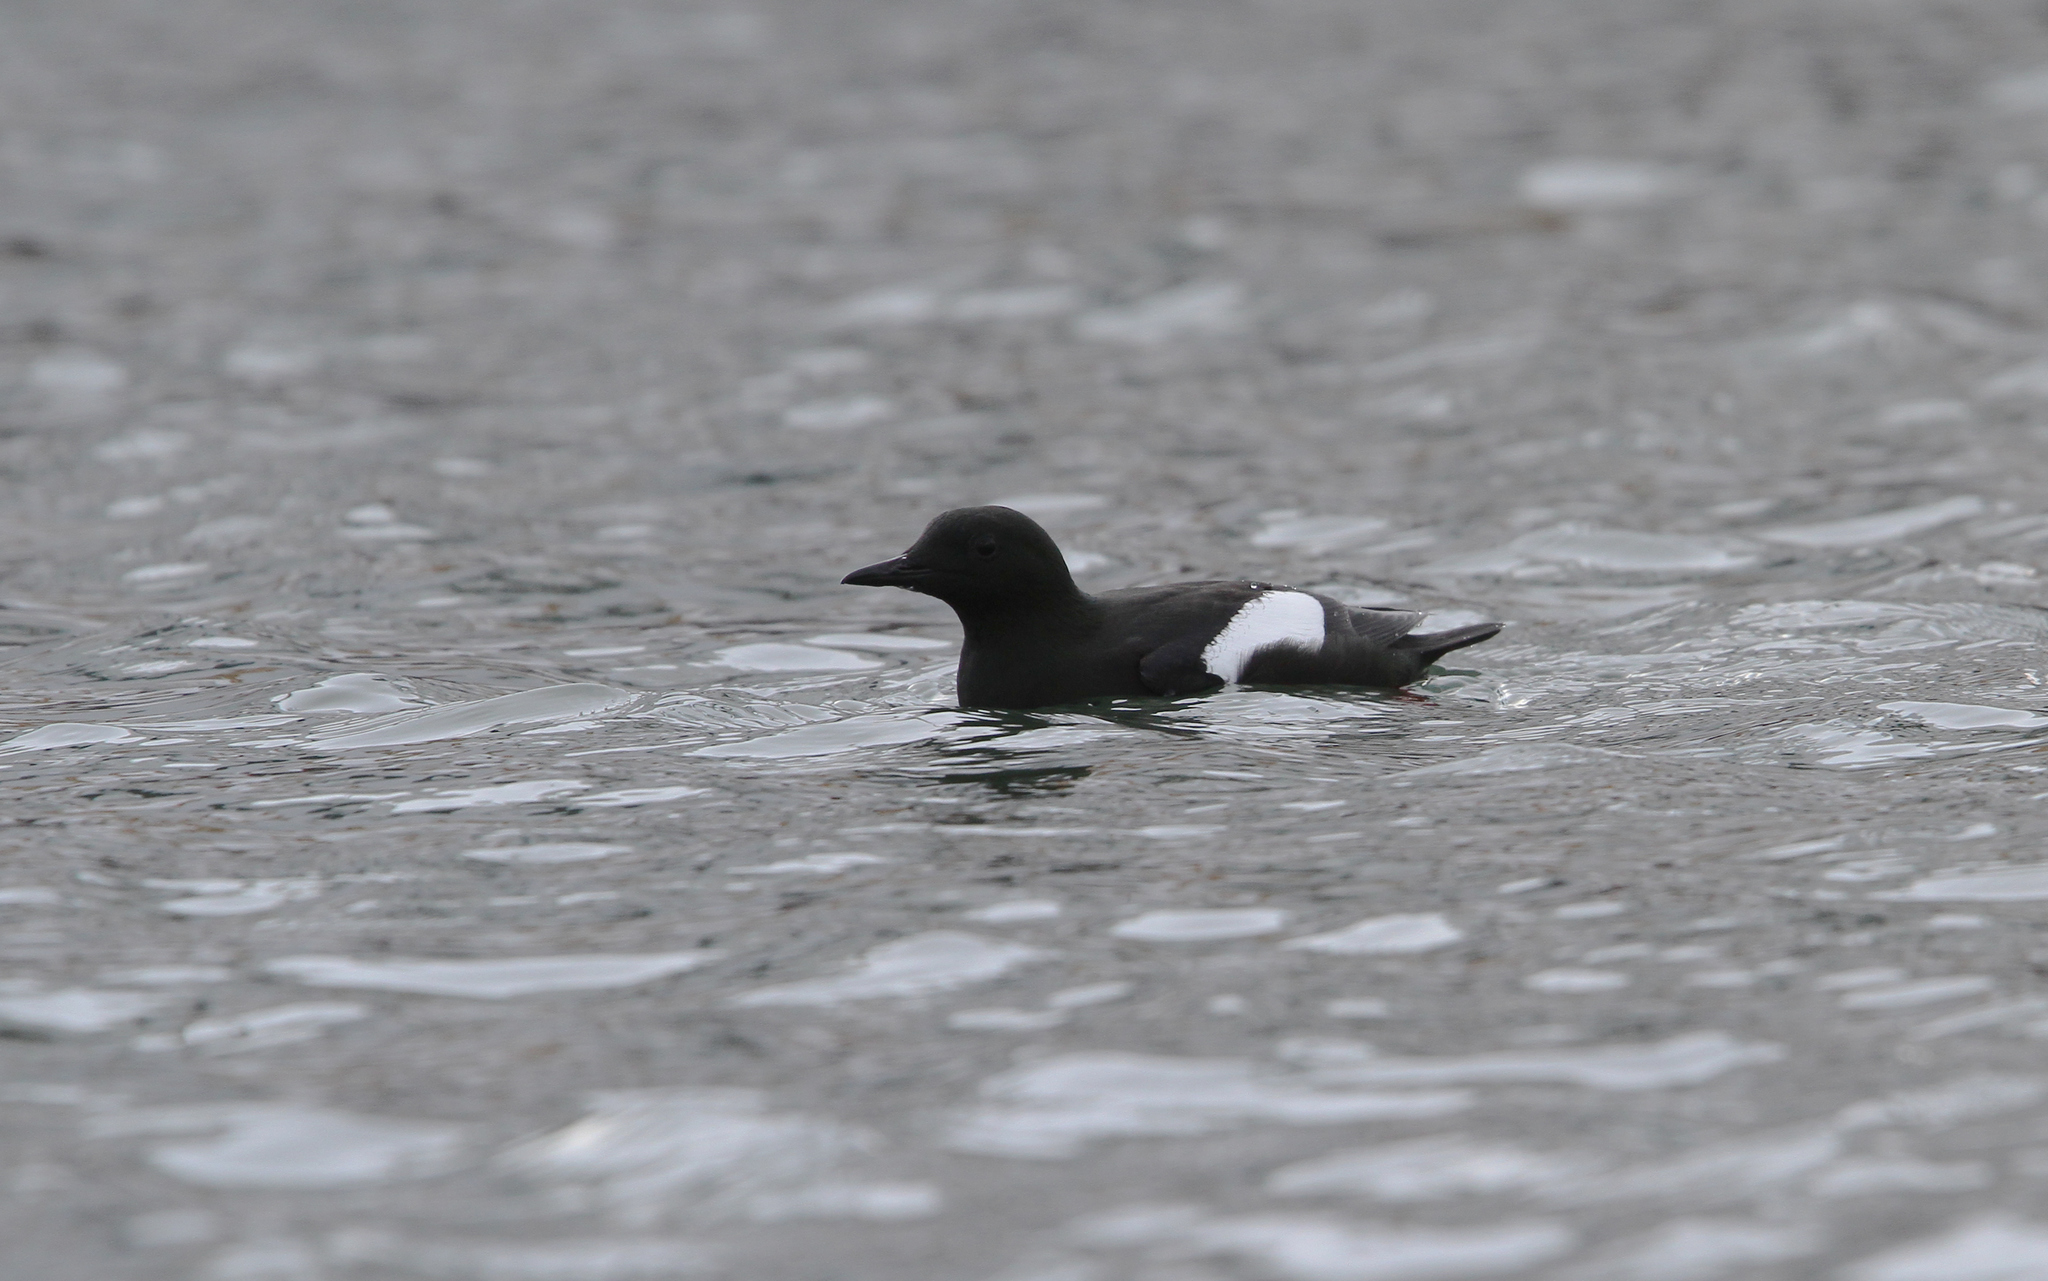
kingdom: Animalia
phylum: Chordata
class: Aves
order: Charadriiformes
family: Alcidae
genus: Cepphus
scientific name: Cepphus grylle
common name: Black guillemot
